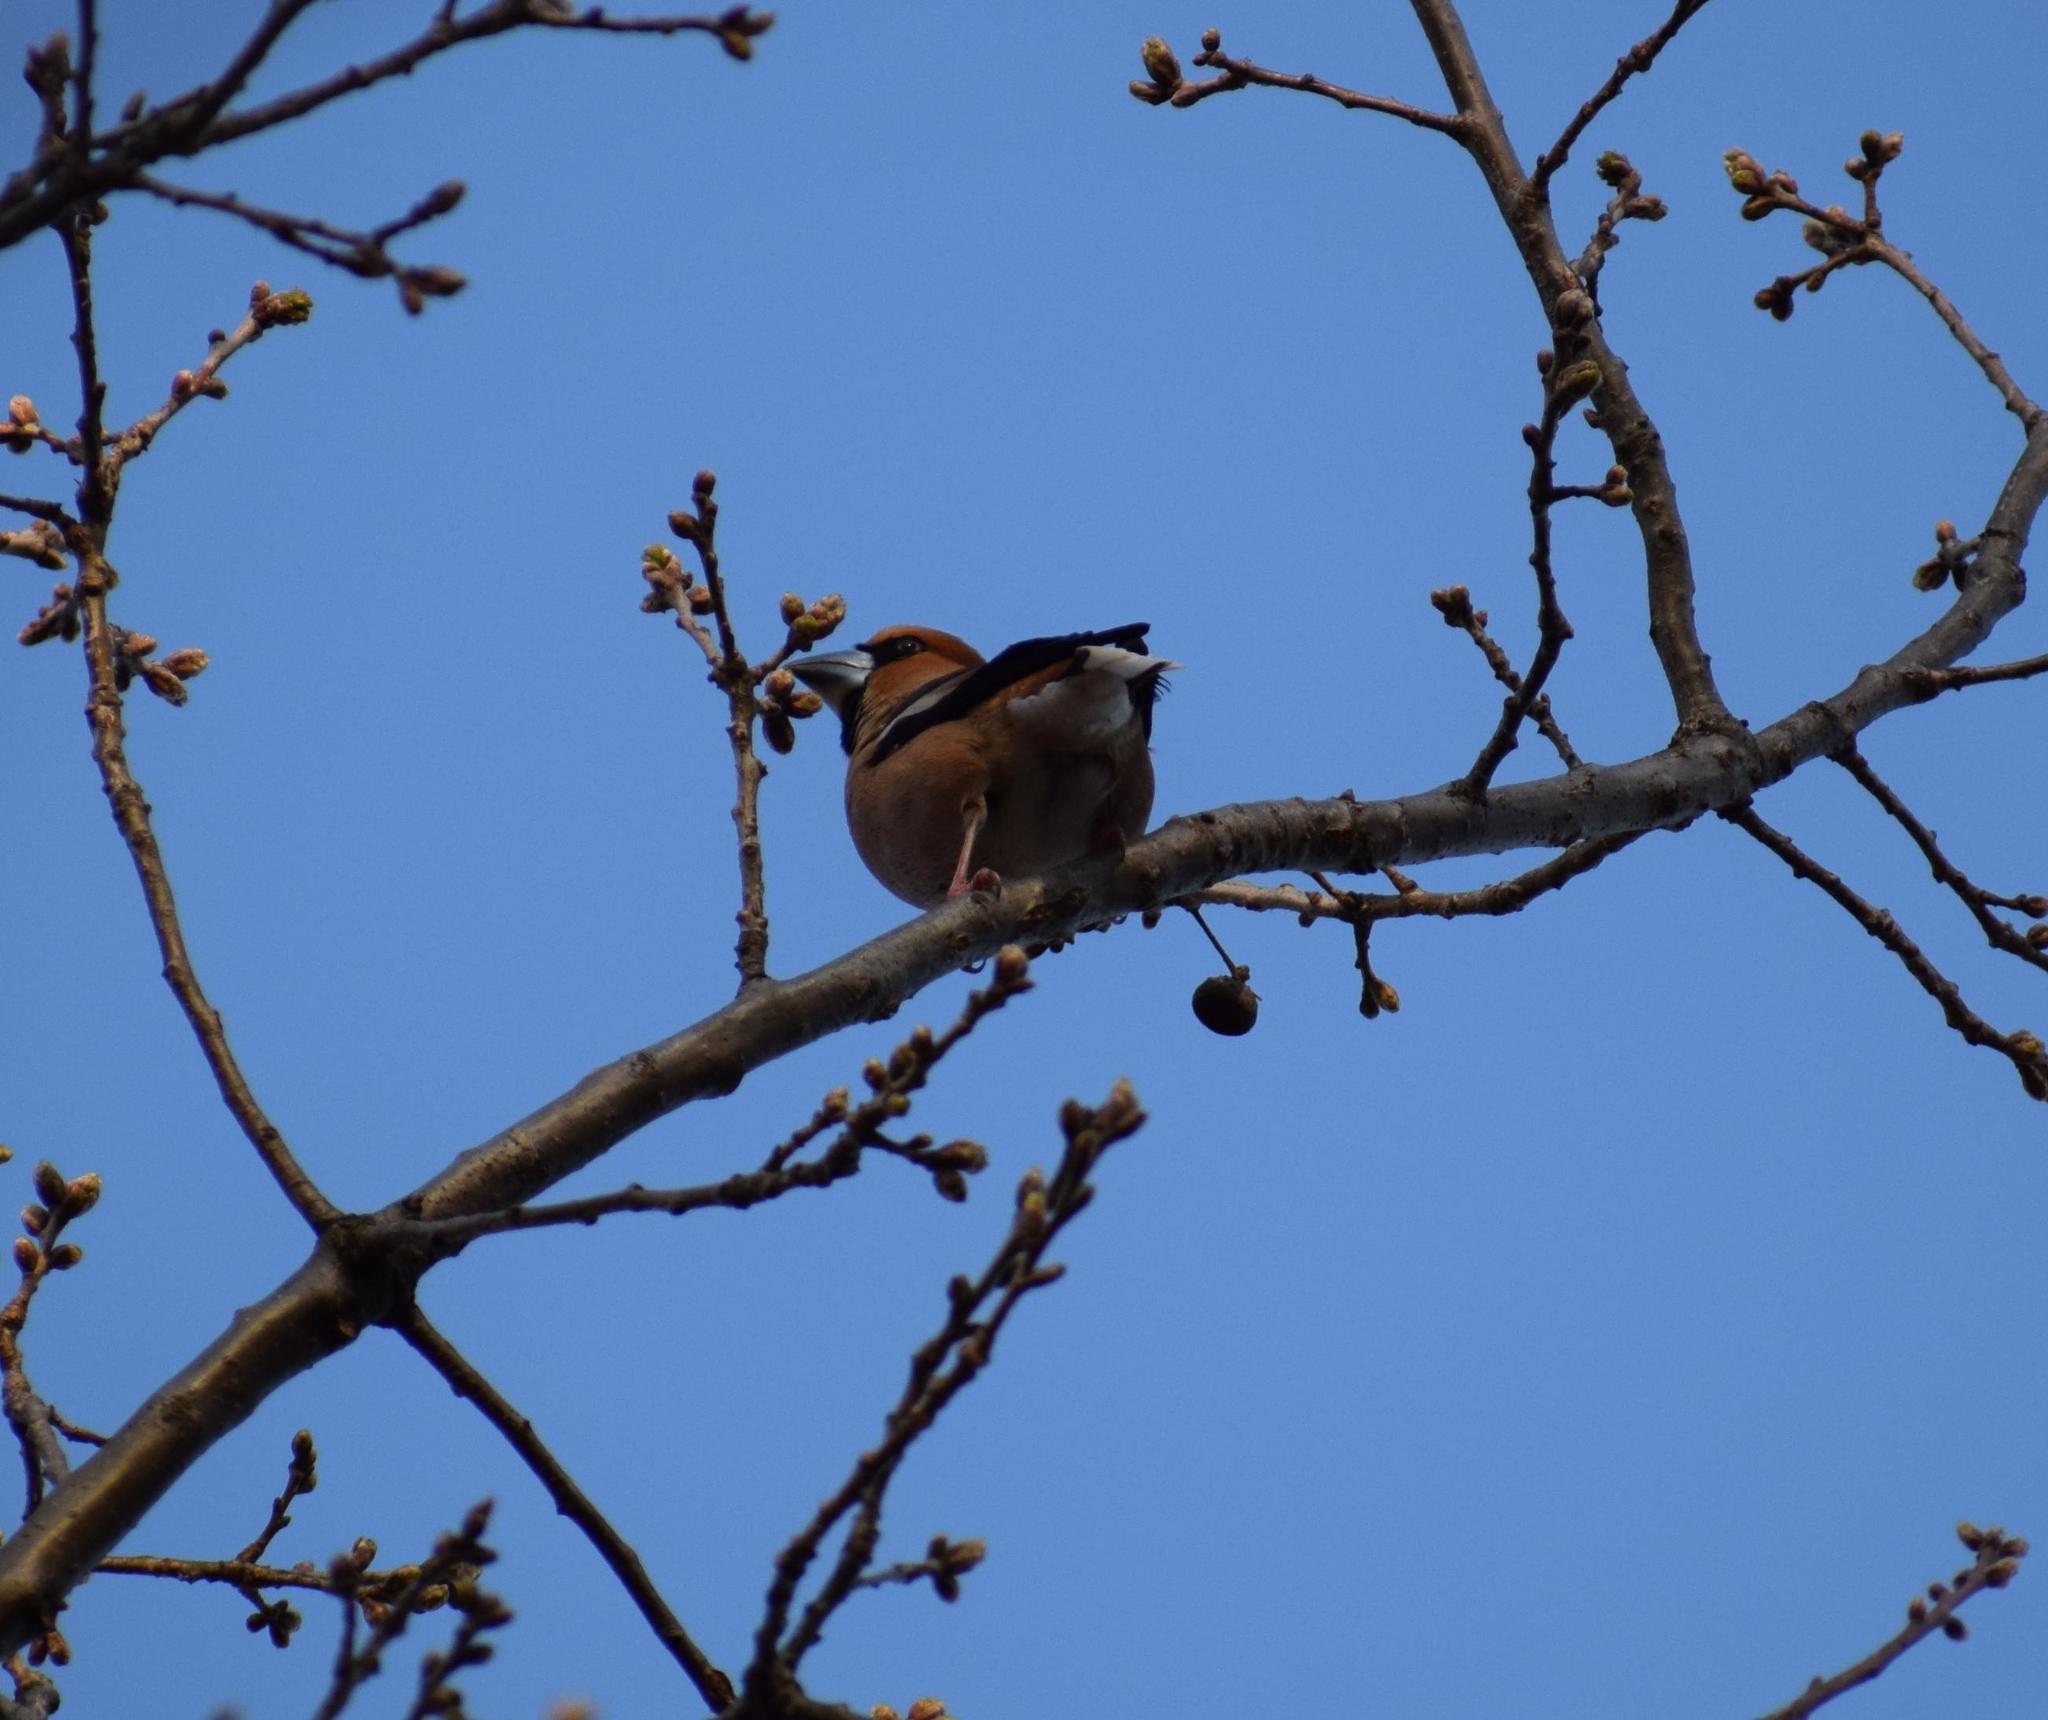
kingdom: Animalia
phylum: Chordata
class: Aves
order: Passeriformes
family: Fringillidae
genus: Coccothraustes
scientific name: Coccothraustes coccothraustes
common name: Hawfinch
